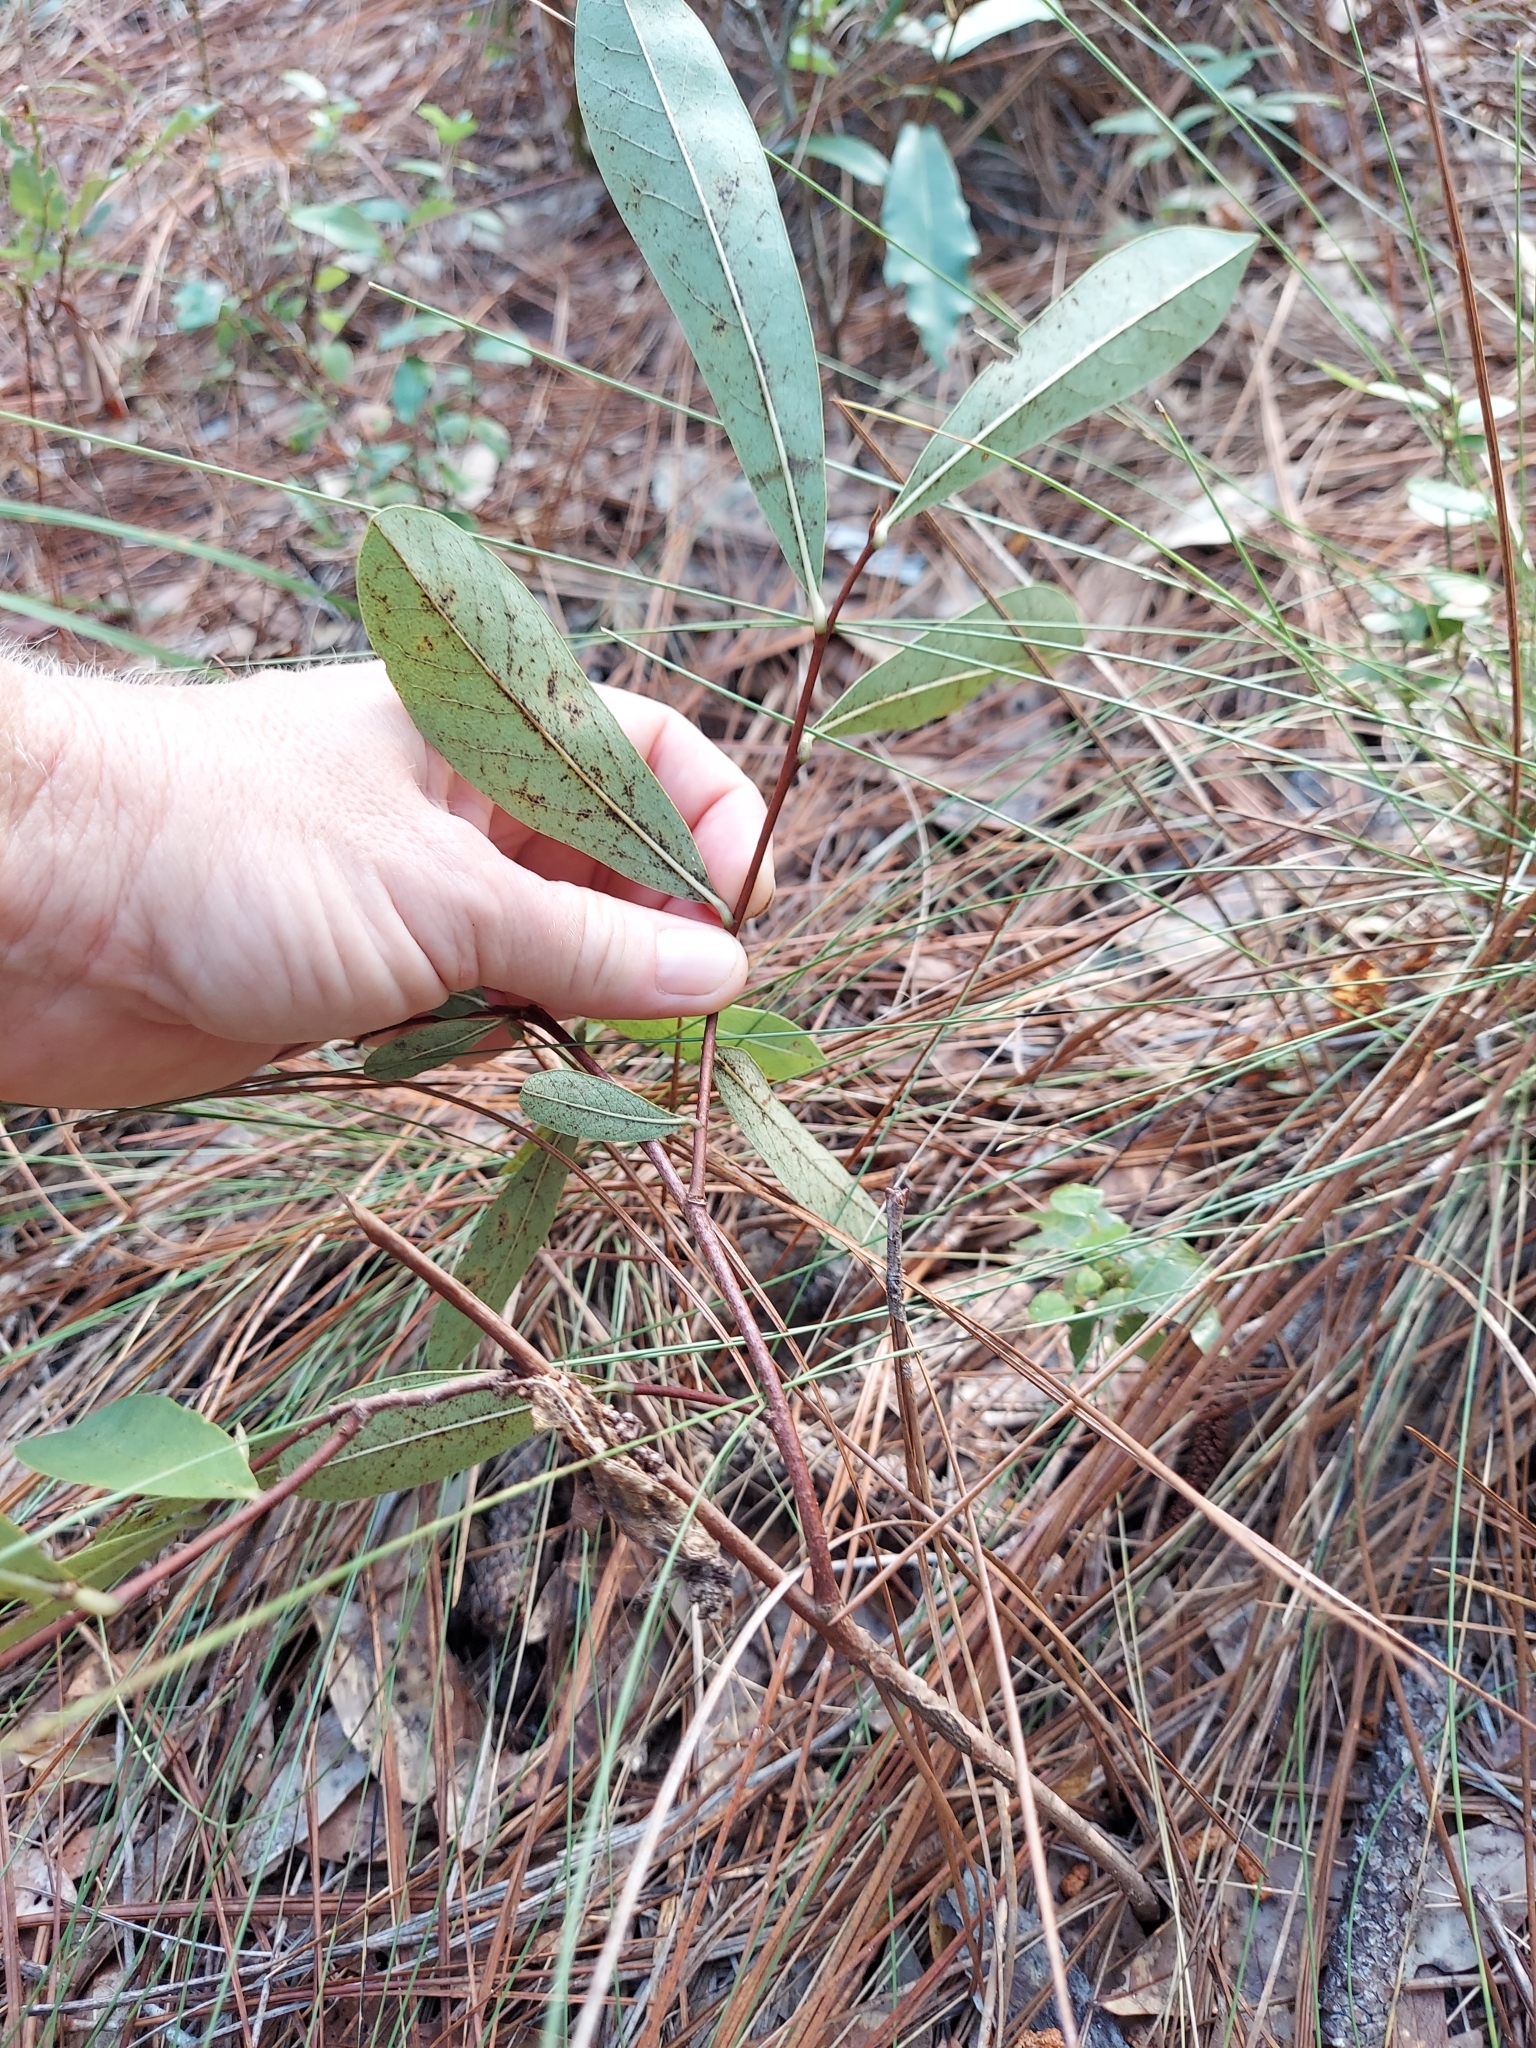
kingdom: Plantae
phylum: Tracheophyta
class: Magnoliopsida
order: Magnoliales
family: Annonaceae
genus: Asimina
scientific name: Asimina pygmaea
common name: Dwarf pawpaw
